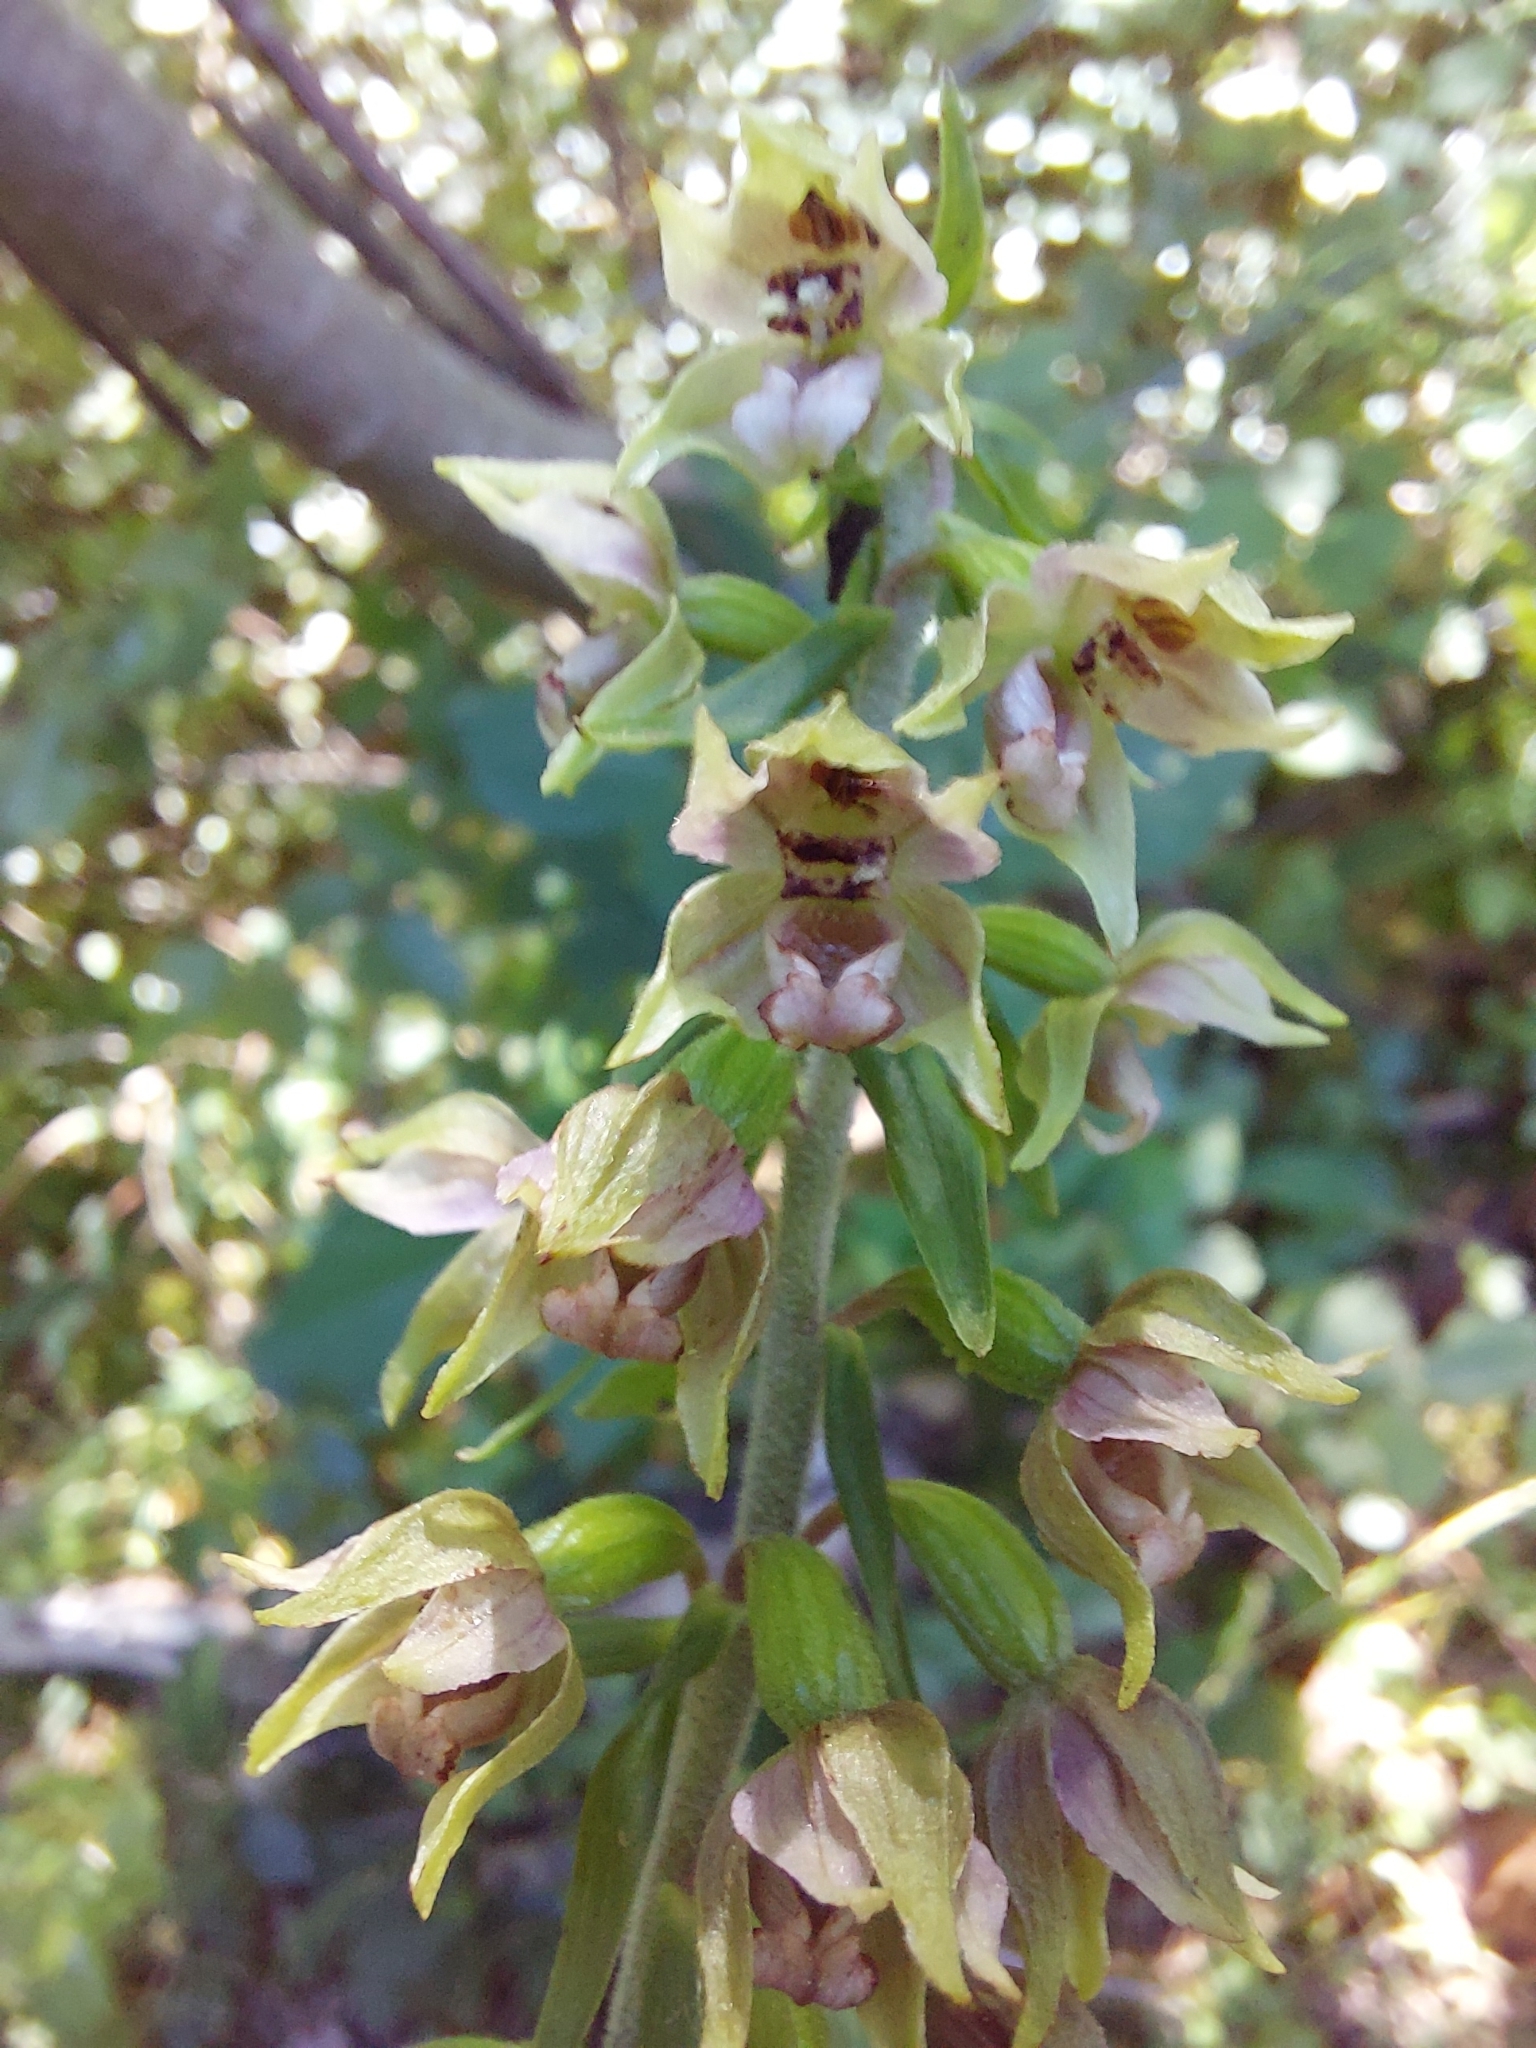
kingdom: Plantae
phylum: Tracheophyta
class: Liliopsida
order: Asparagales
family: Orchidaceae
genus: Epipactis
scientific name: Epipactis helleborine
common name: Broad-leaved helleborine
